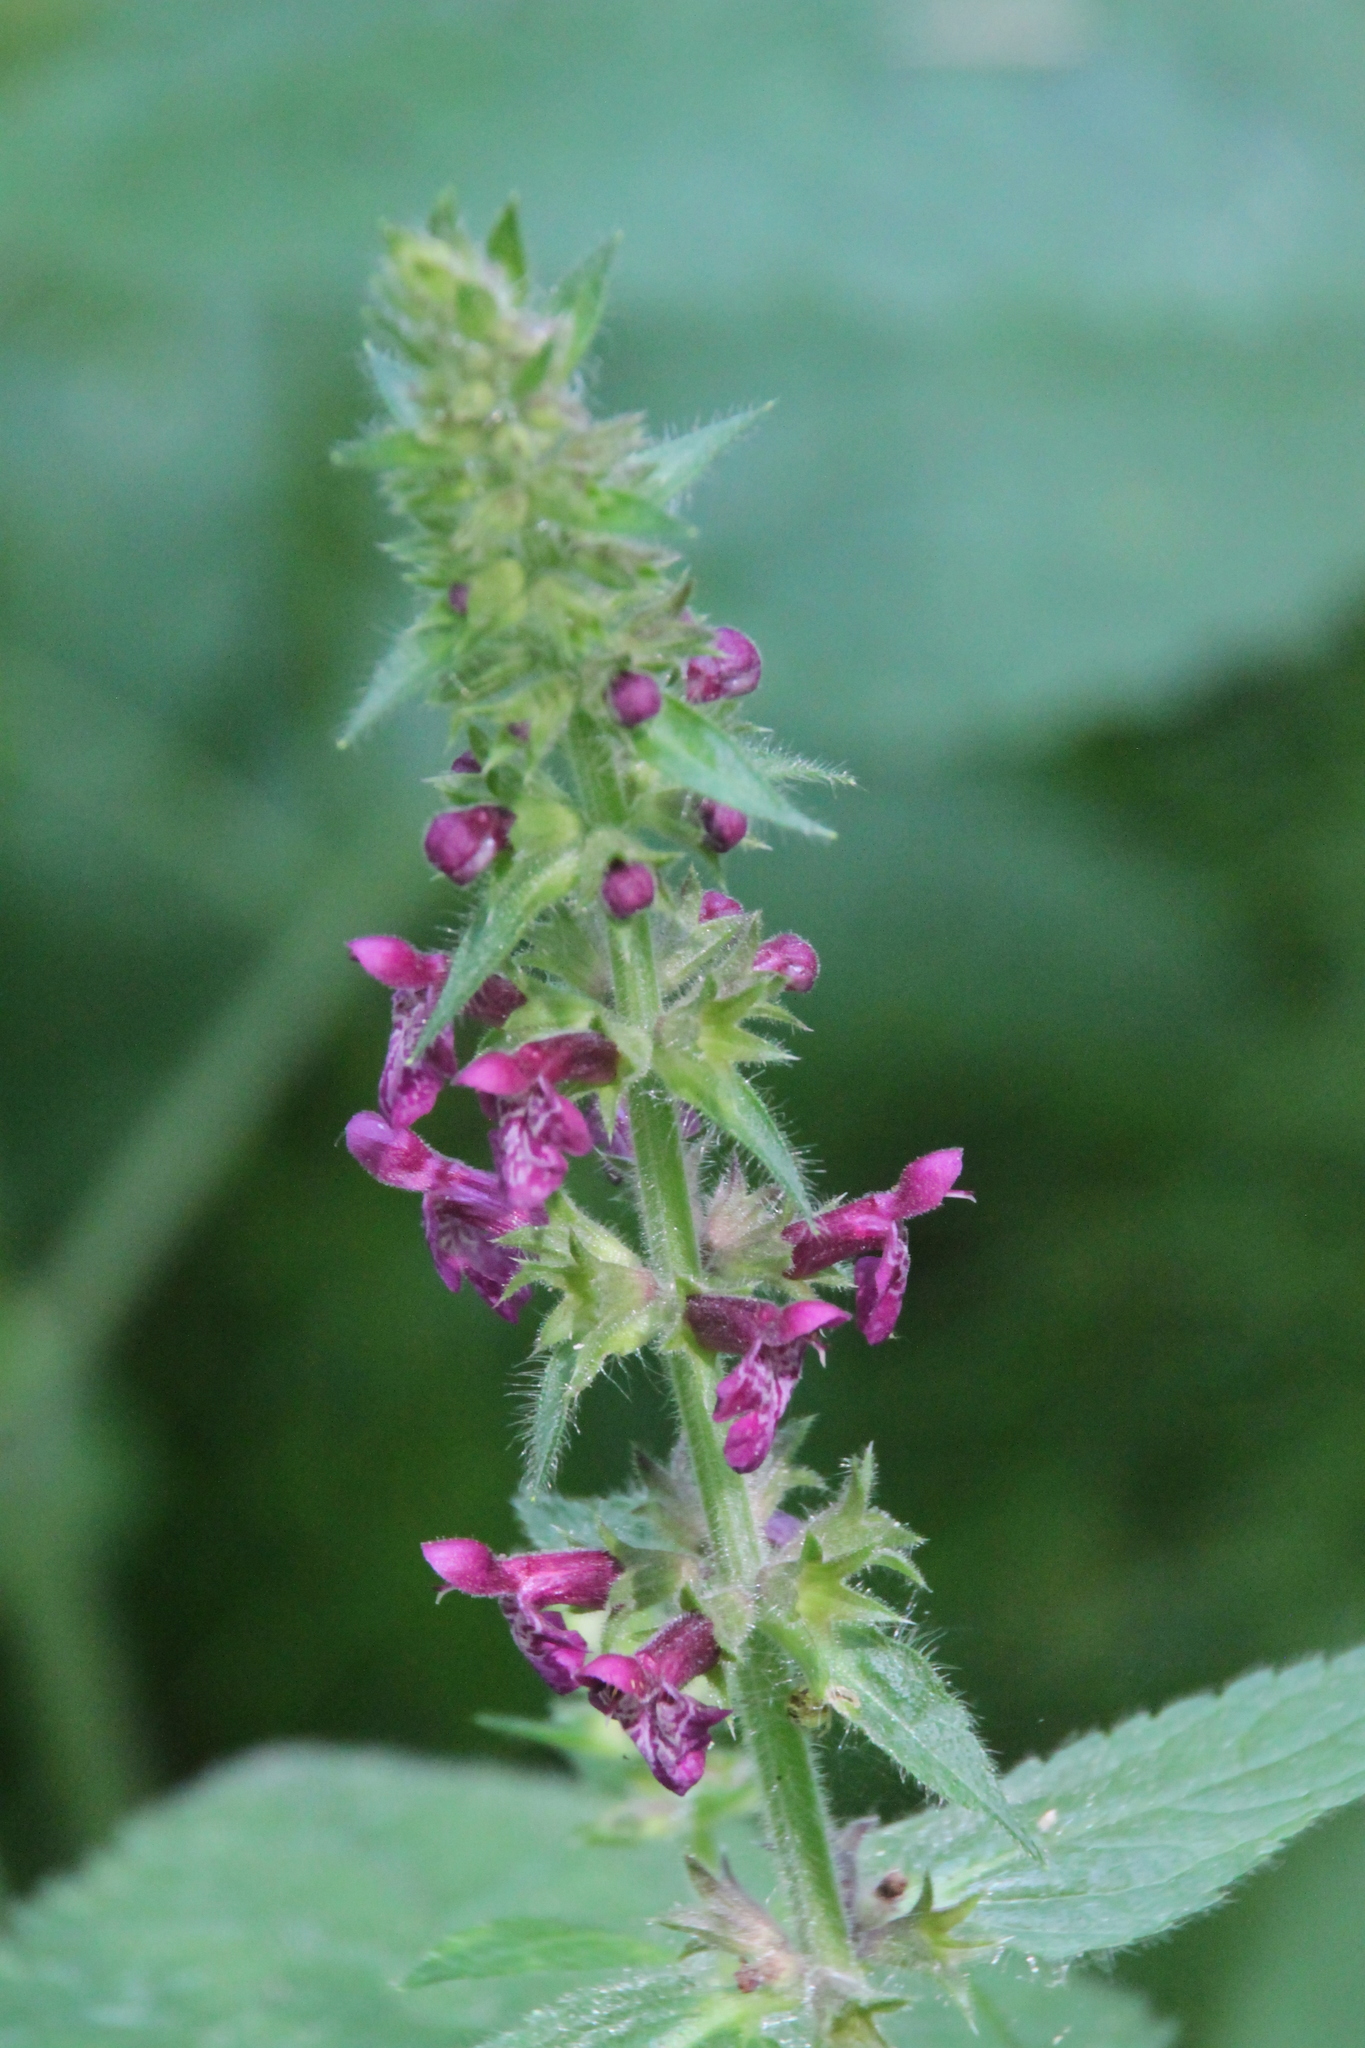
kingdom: Plantae
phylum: Tracheophyta
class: Magnoliopsida
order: Lamiales
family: Lamiaceae
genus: Stachys
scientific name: Stachys sylvatica
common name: Hedge woundwort
